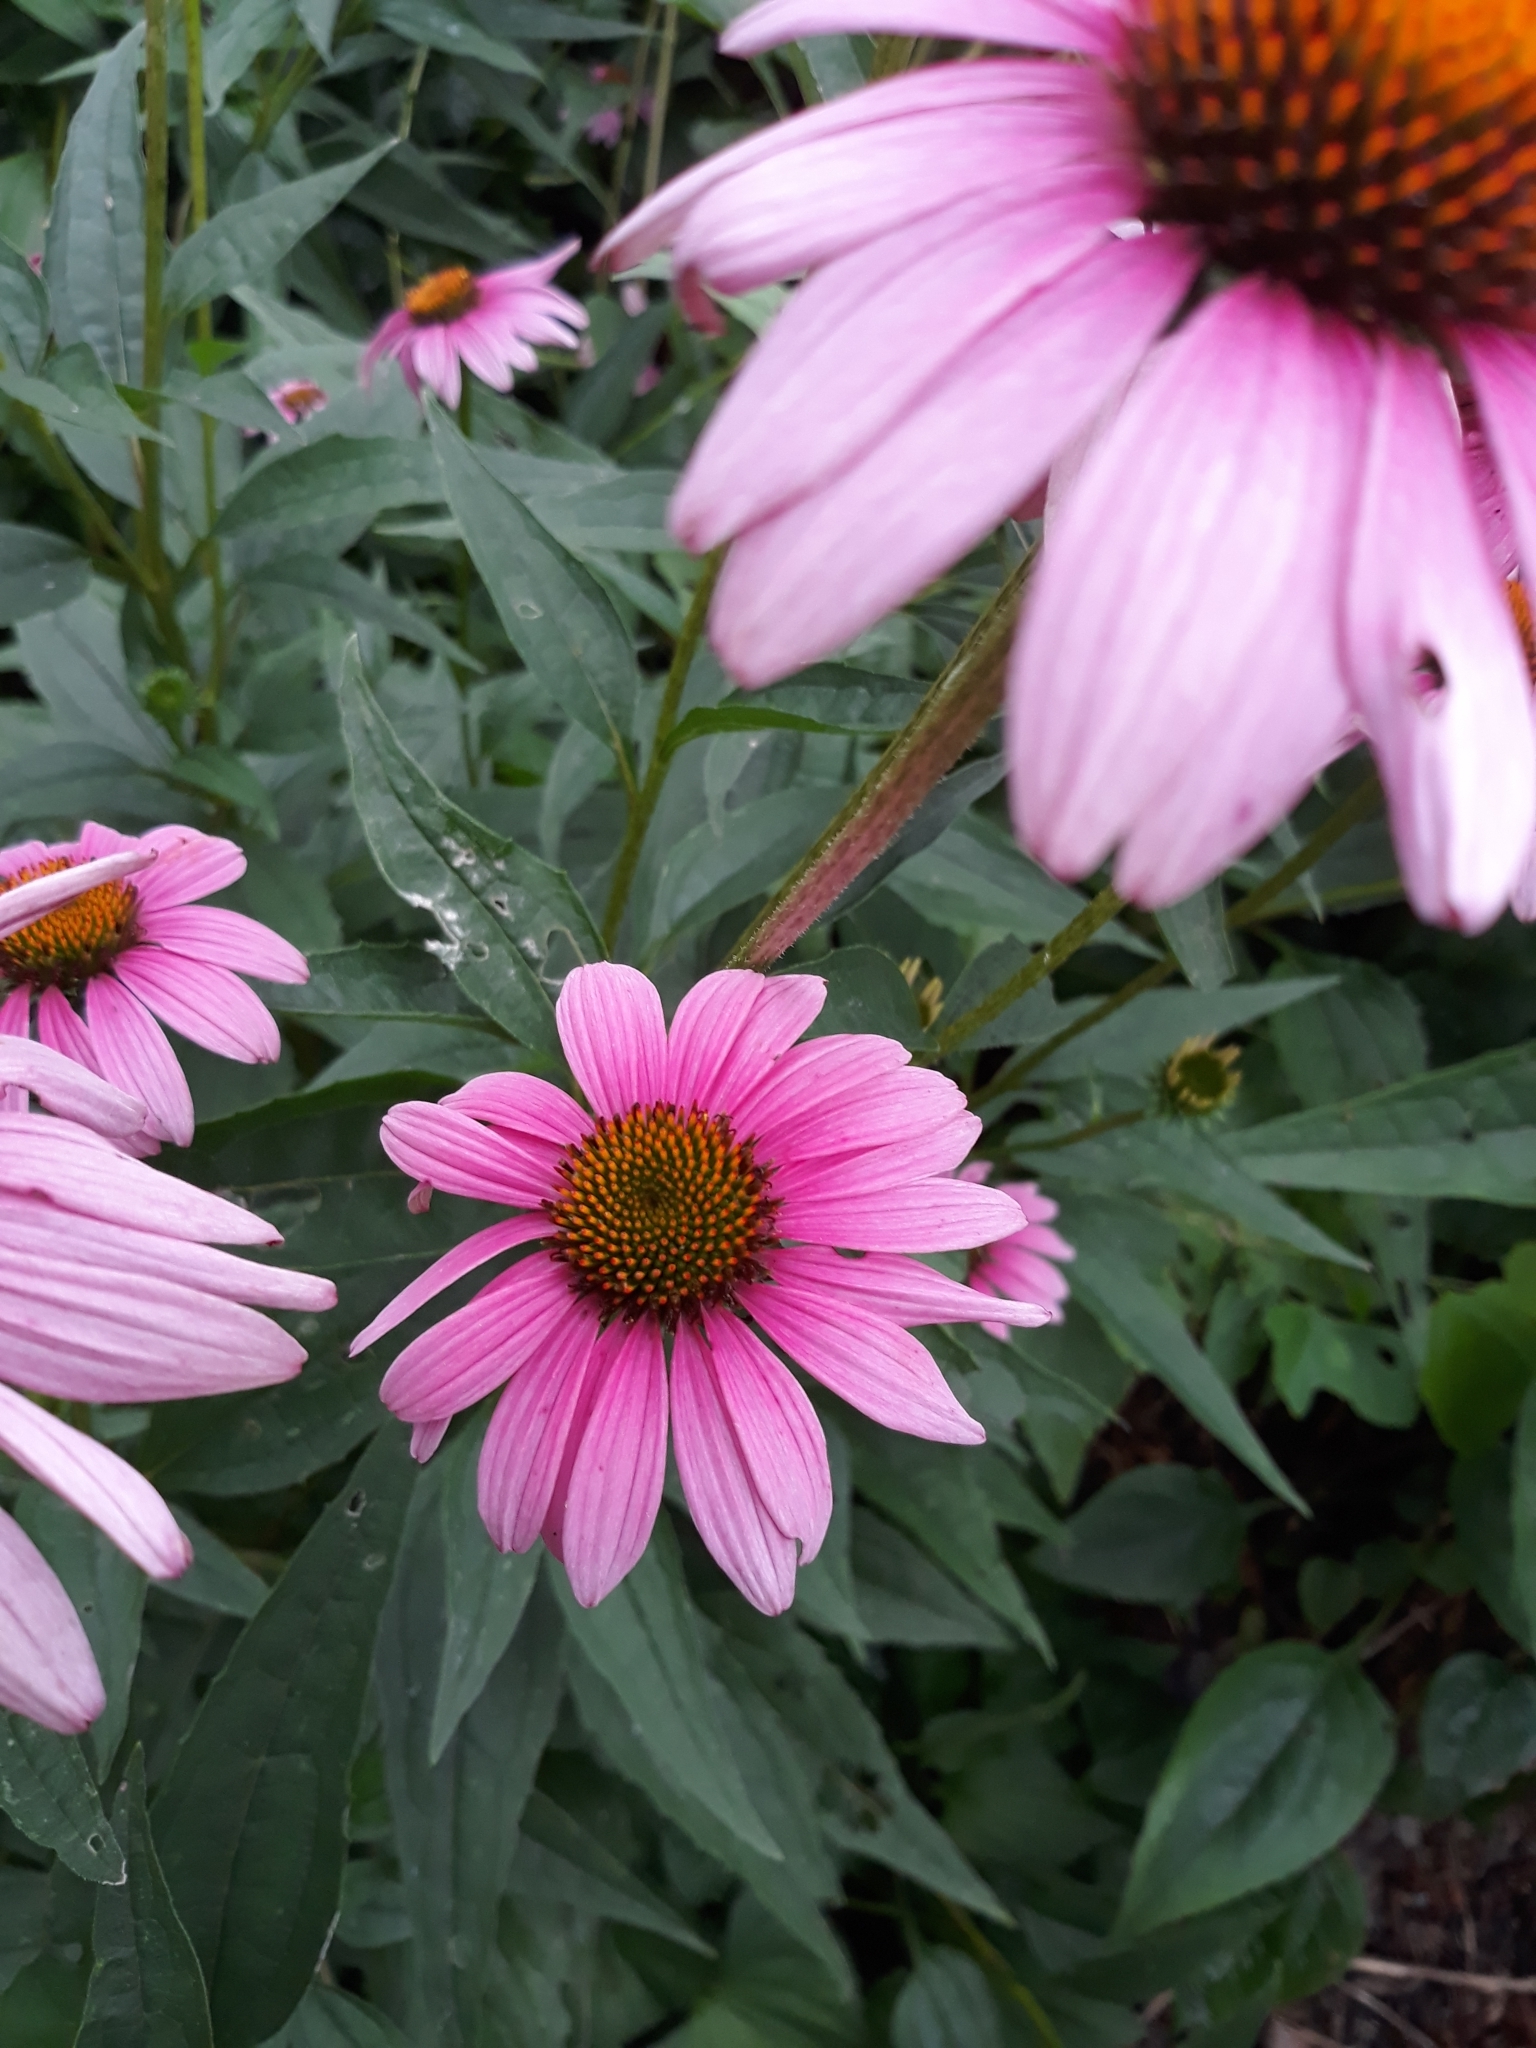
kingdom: Plantae
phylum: Tracheophyta
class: Magnoliopsida
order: Asterales
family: Asteraceae
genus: Echinacea
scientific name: Echinacea purpurea
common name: Broad-leaved purple coneflower
